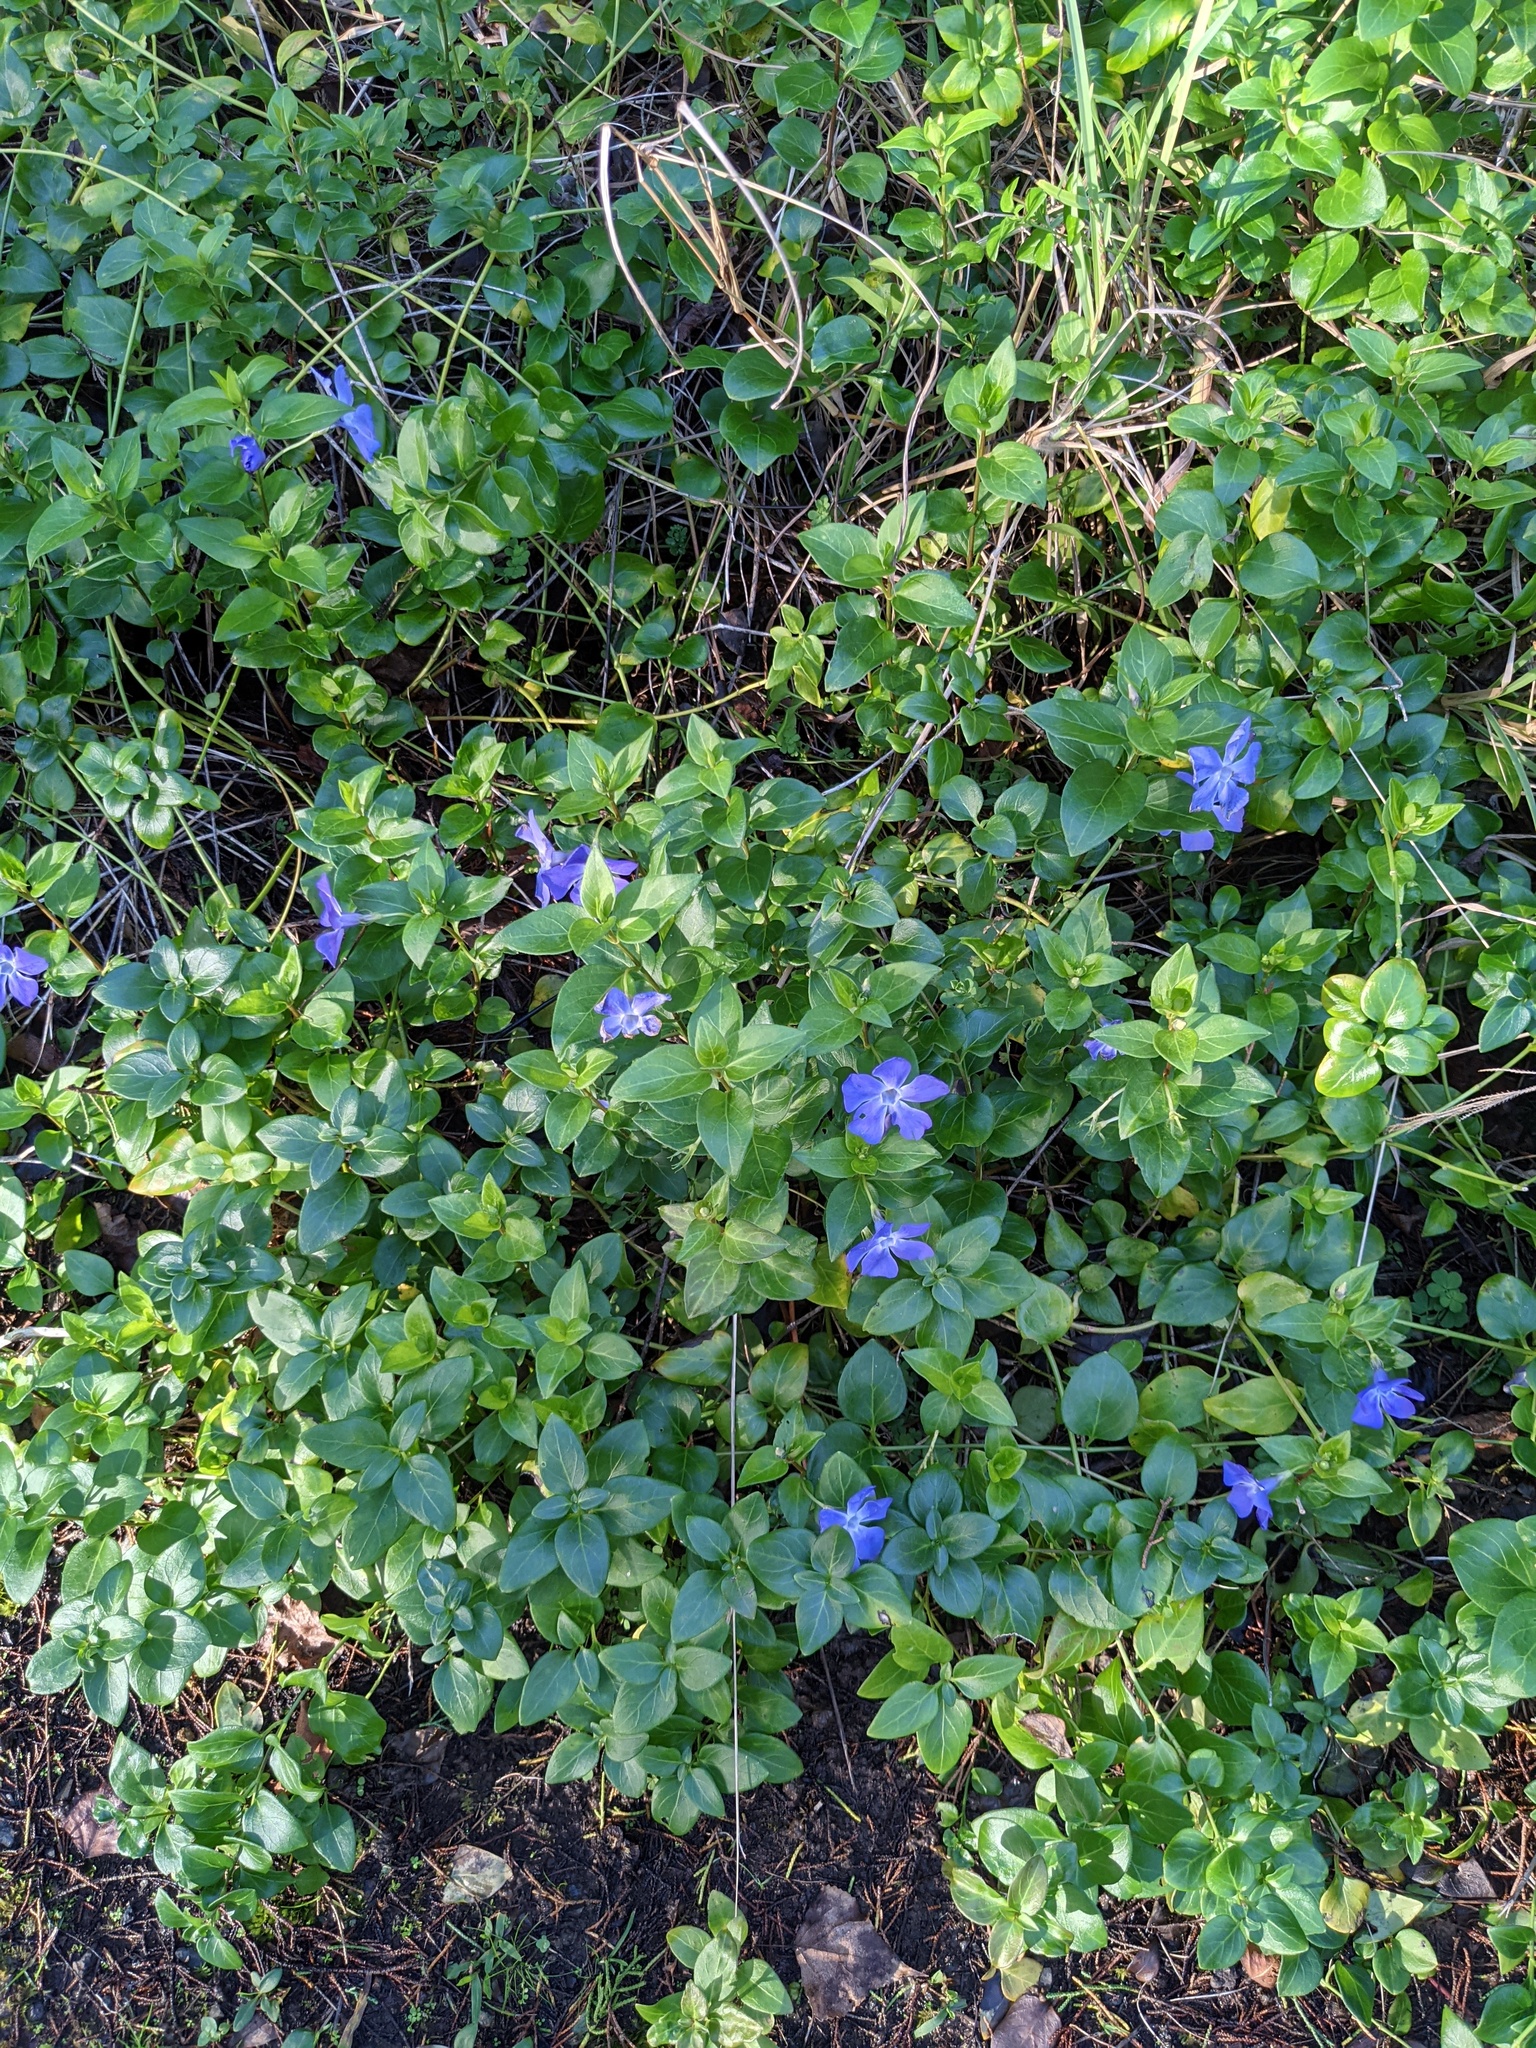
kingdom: Plantae
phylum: Tracheophyta
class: Magnoliopsida
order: Gentianales
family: Apocynaceae
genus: Vinca
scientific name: Vinca major
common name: Greater periwinkle
